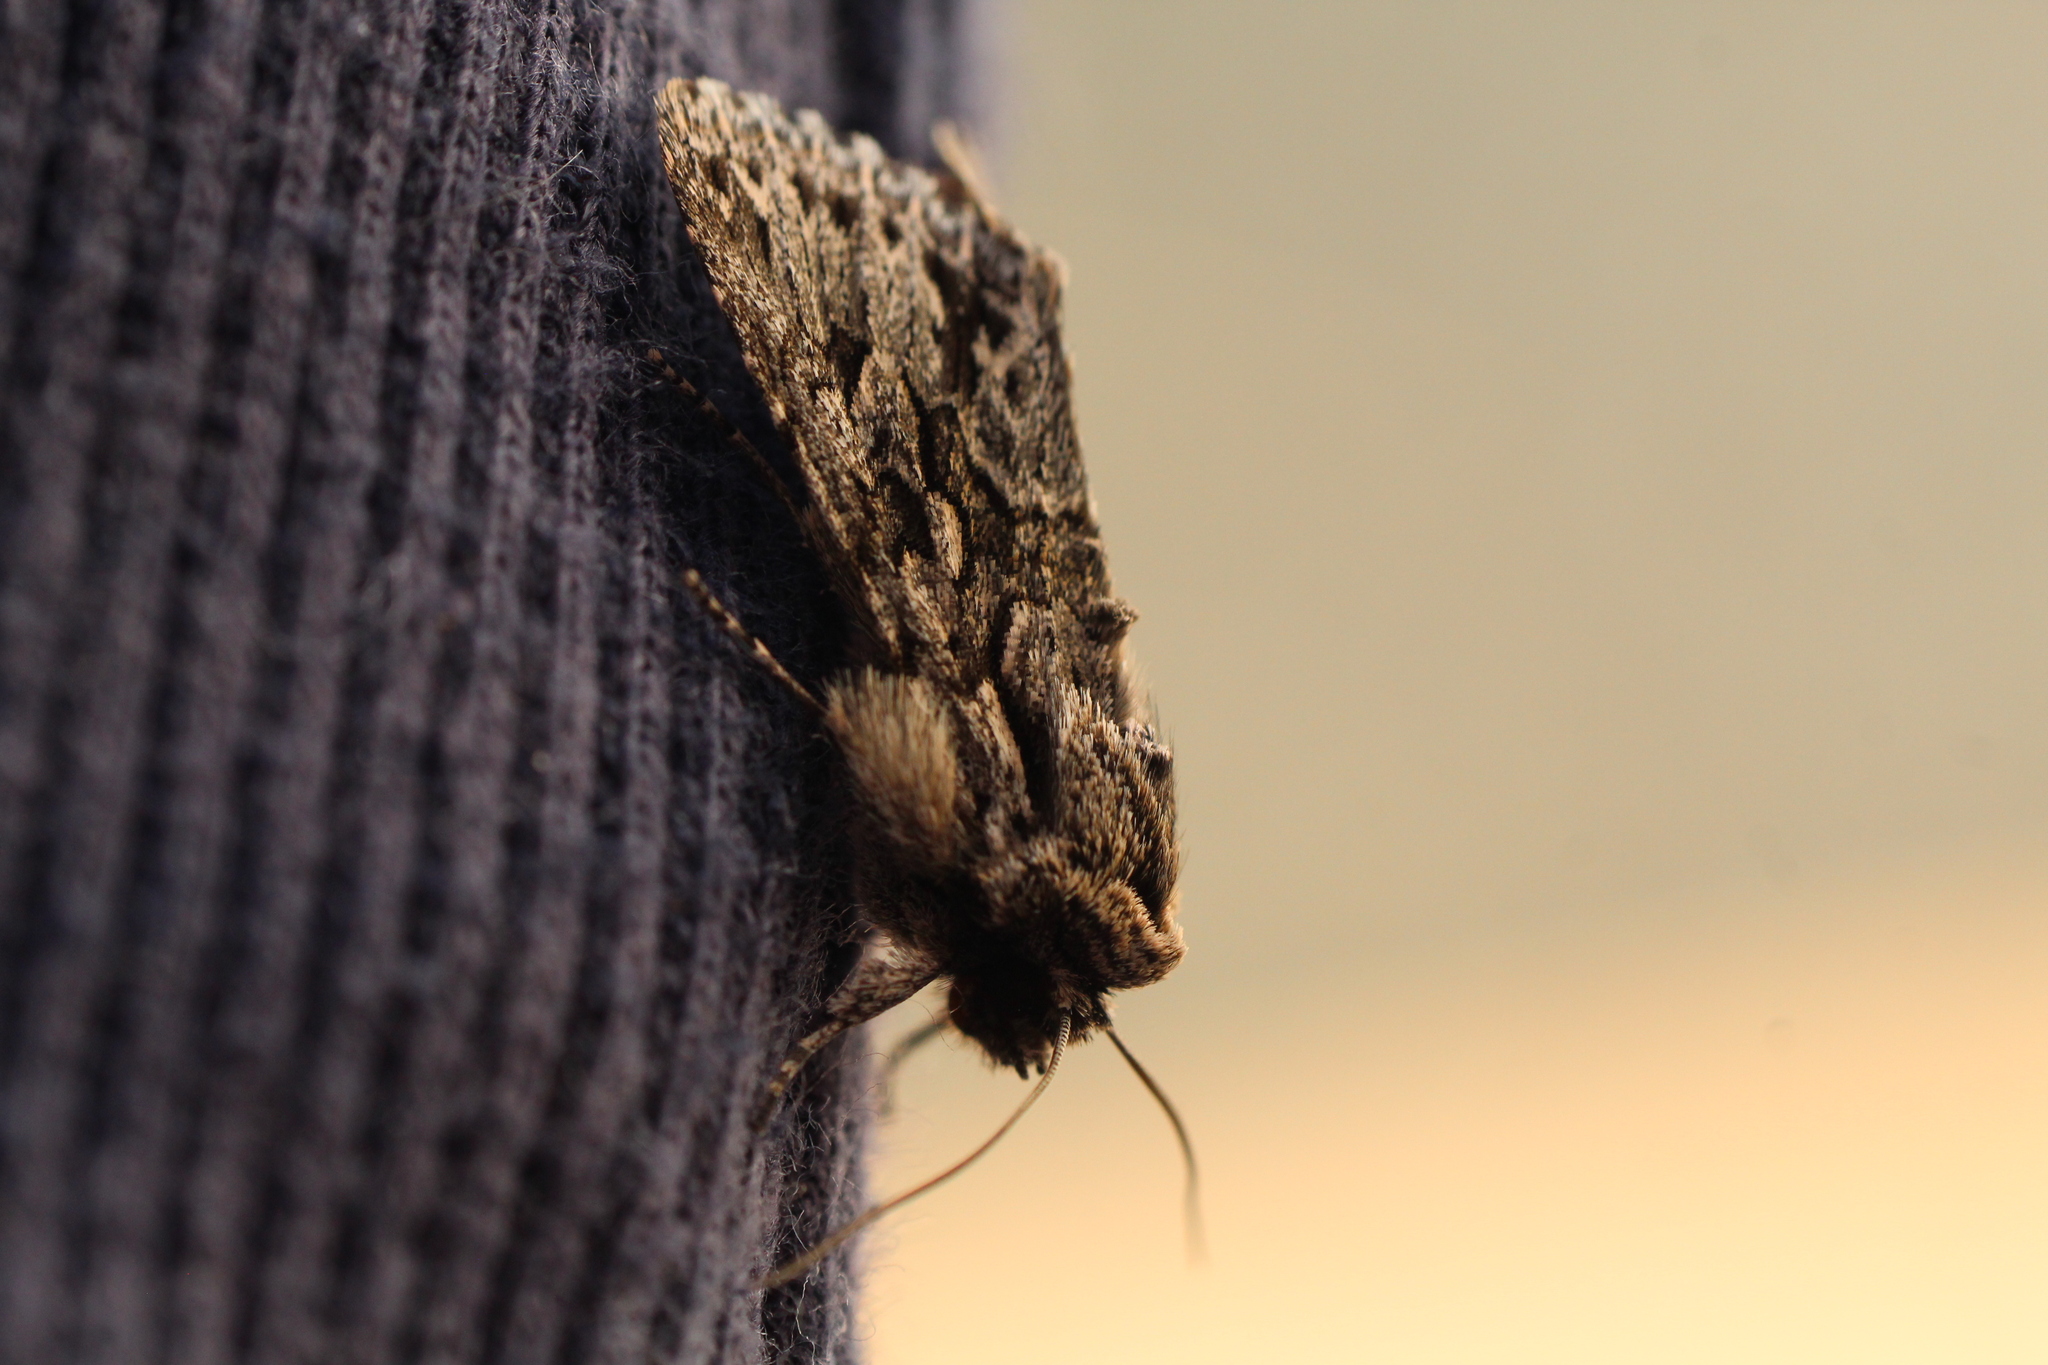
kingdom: Animalia
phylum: Arthropoda
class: Insecta
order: Lepidoptera
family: Noctuidae
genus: Xylocampa
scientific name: Xylocampa areola
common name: Early grey
